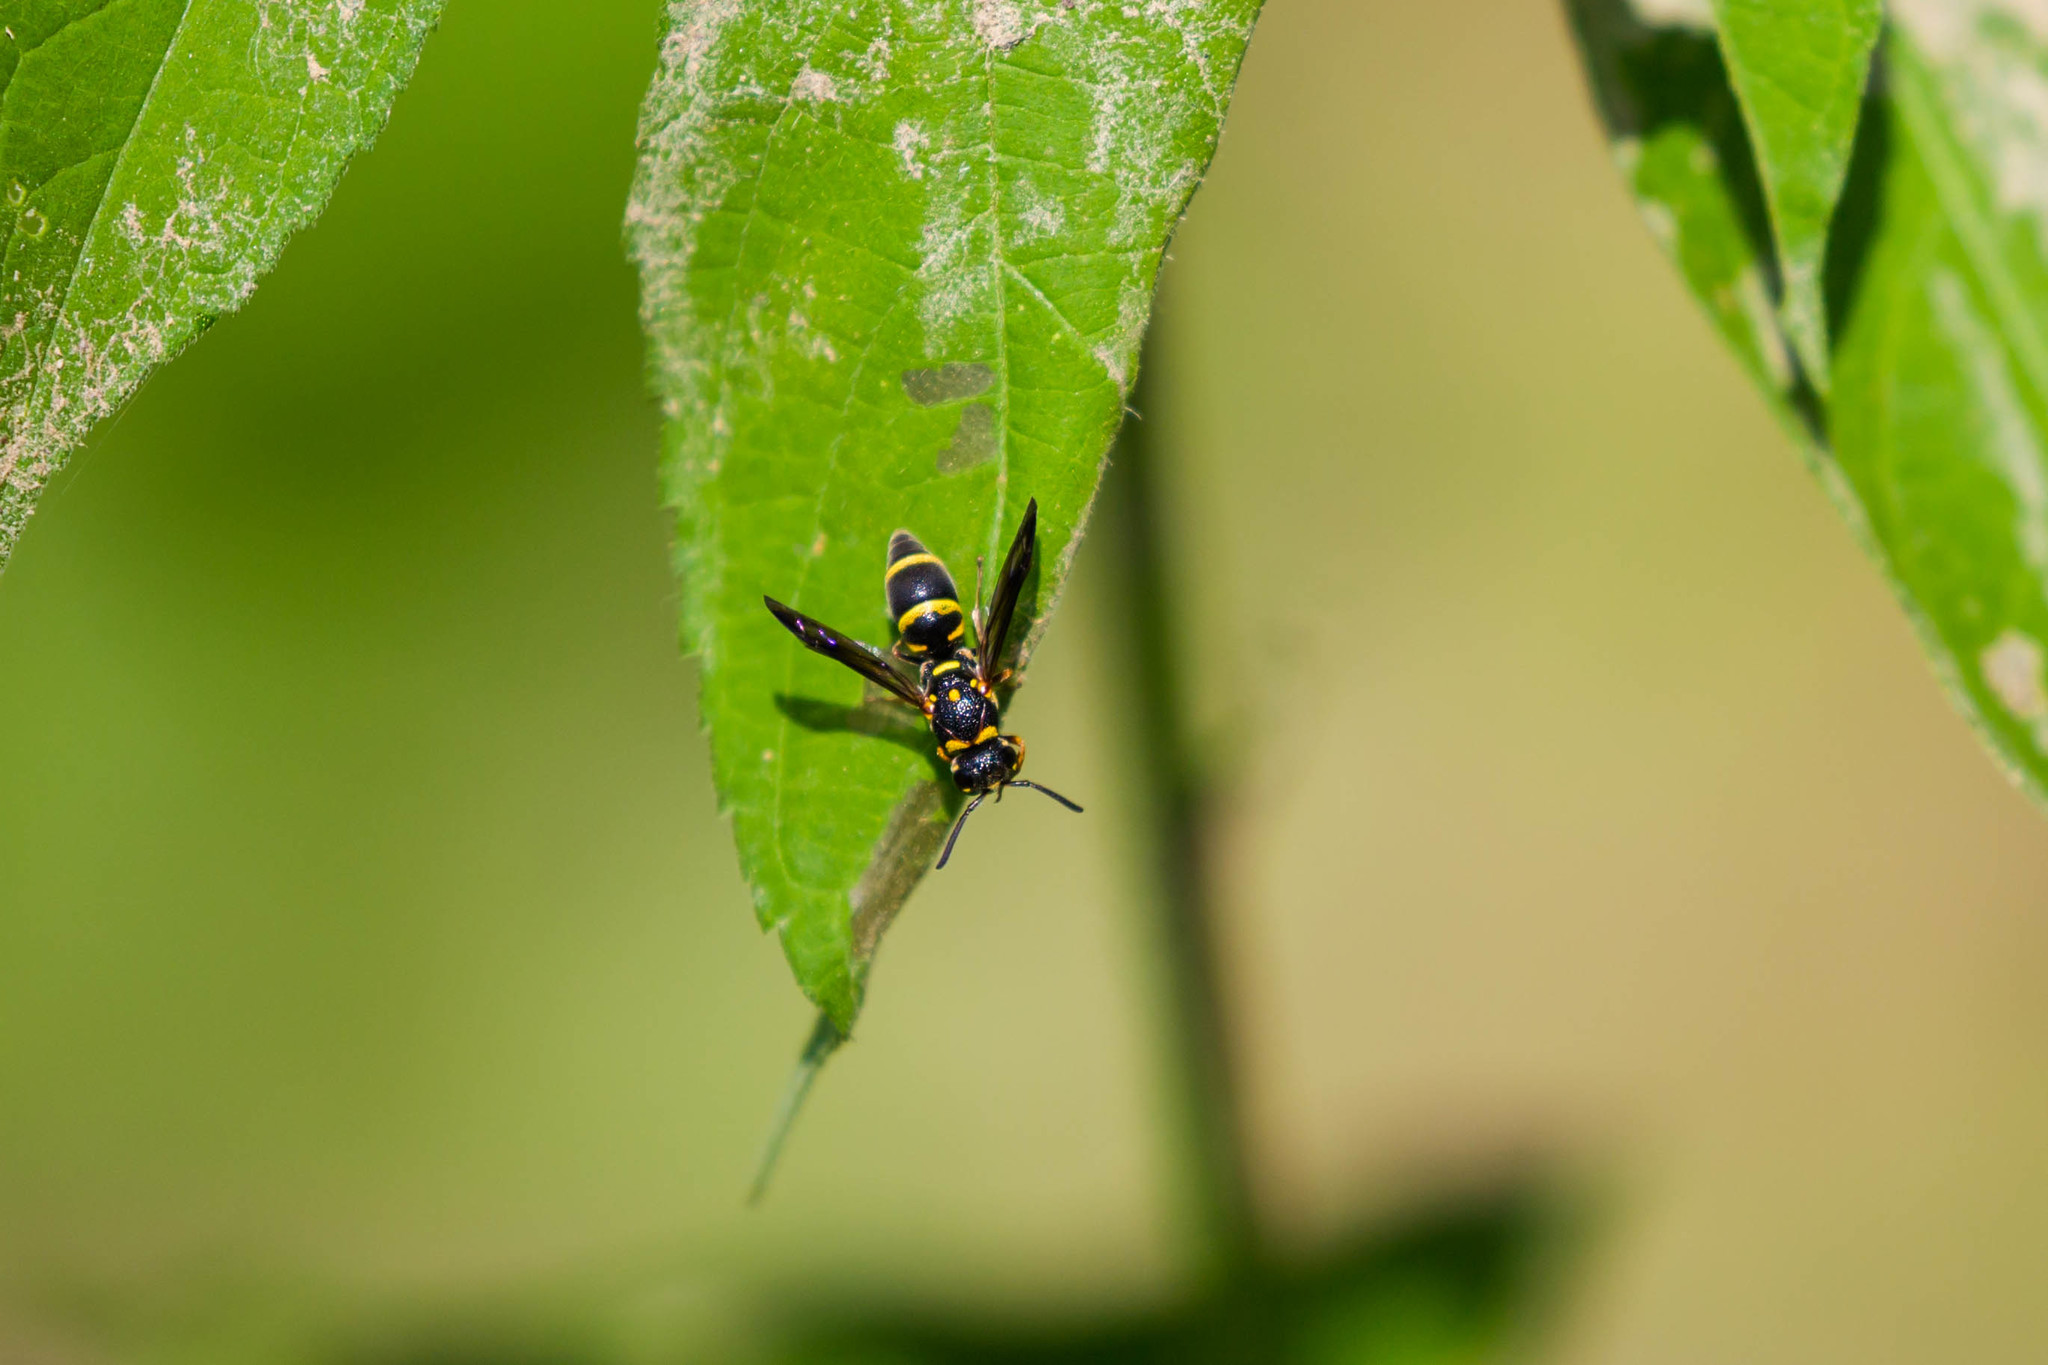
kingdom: Animalia
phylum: Arthropoda
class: Insecta
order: Hymenoptera
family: Eumenidae
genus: Parancistrocerus
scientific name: Parancistrocerus fulvipes
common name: Potter wasp
